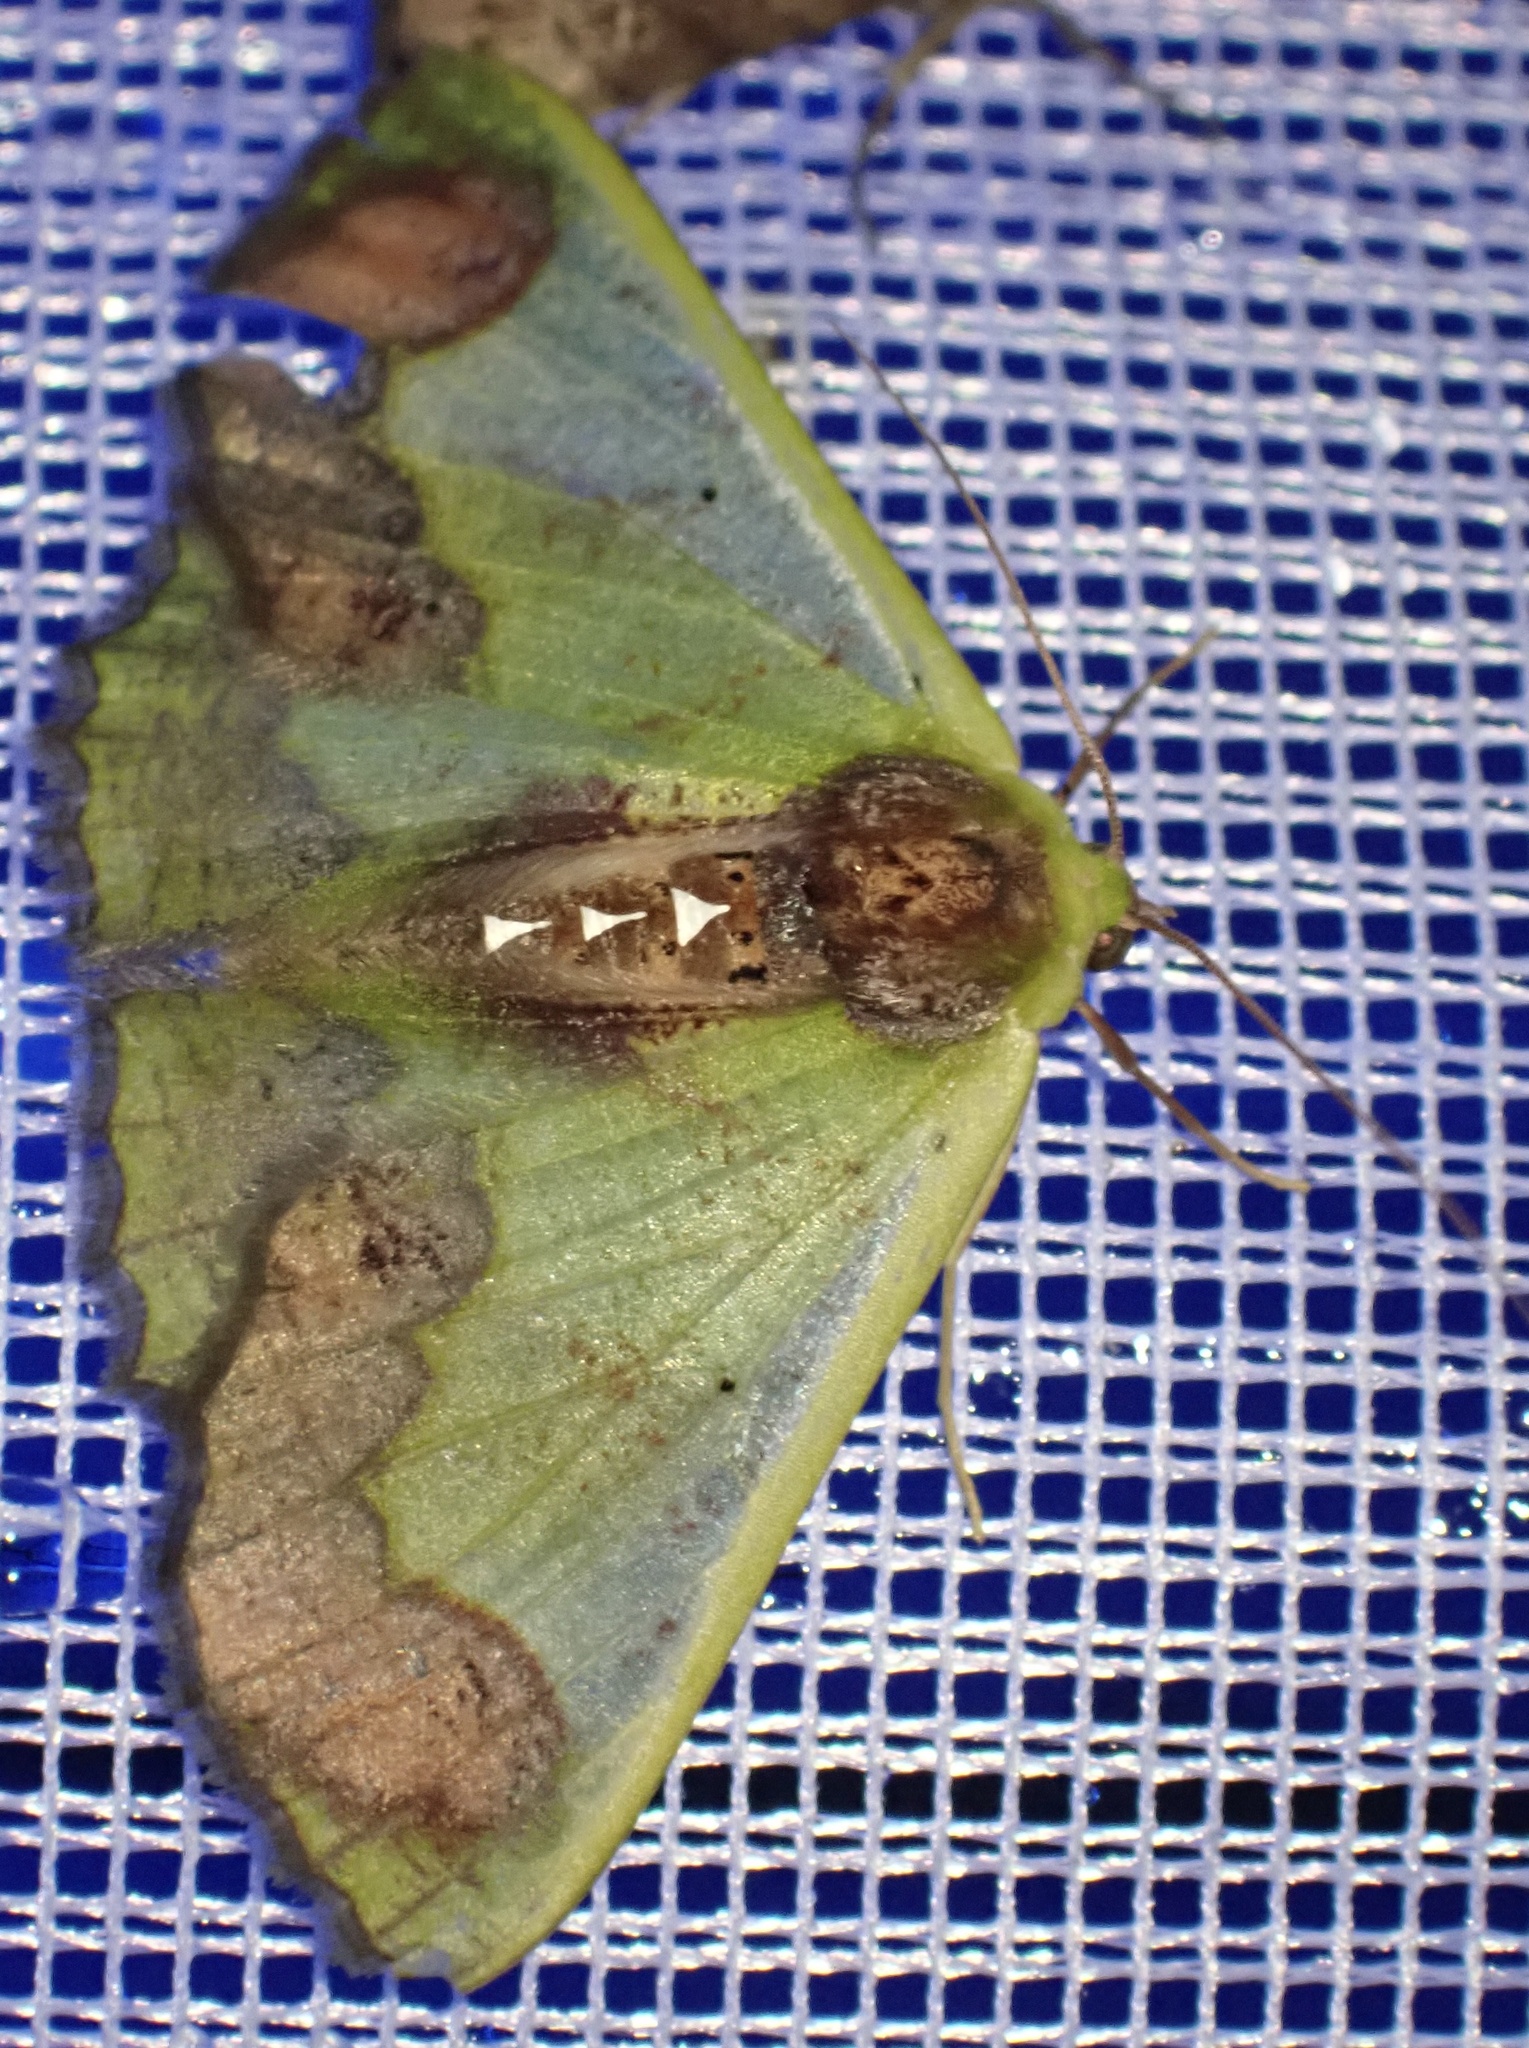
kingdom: Animalia
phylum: Arthropoda
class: Insecta
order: Lepidoptera
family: Geometridae
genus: Agathiopsis
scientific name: Agathiopsis basipuncta
